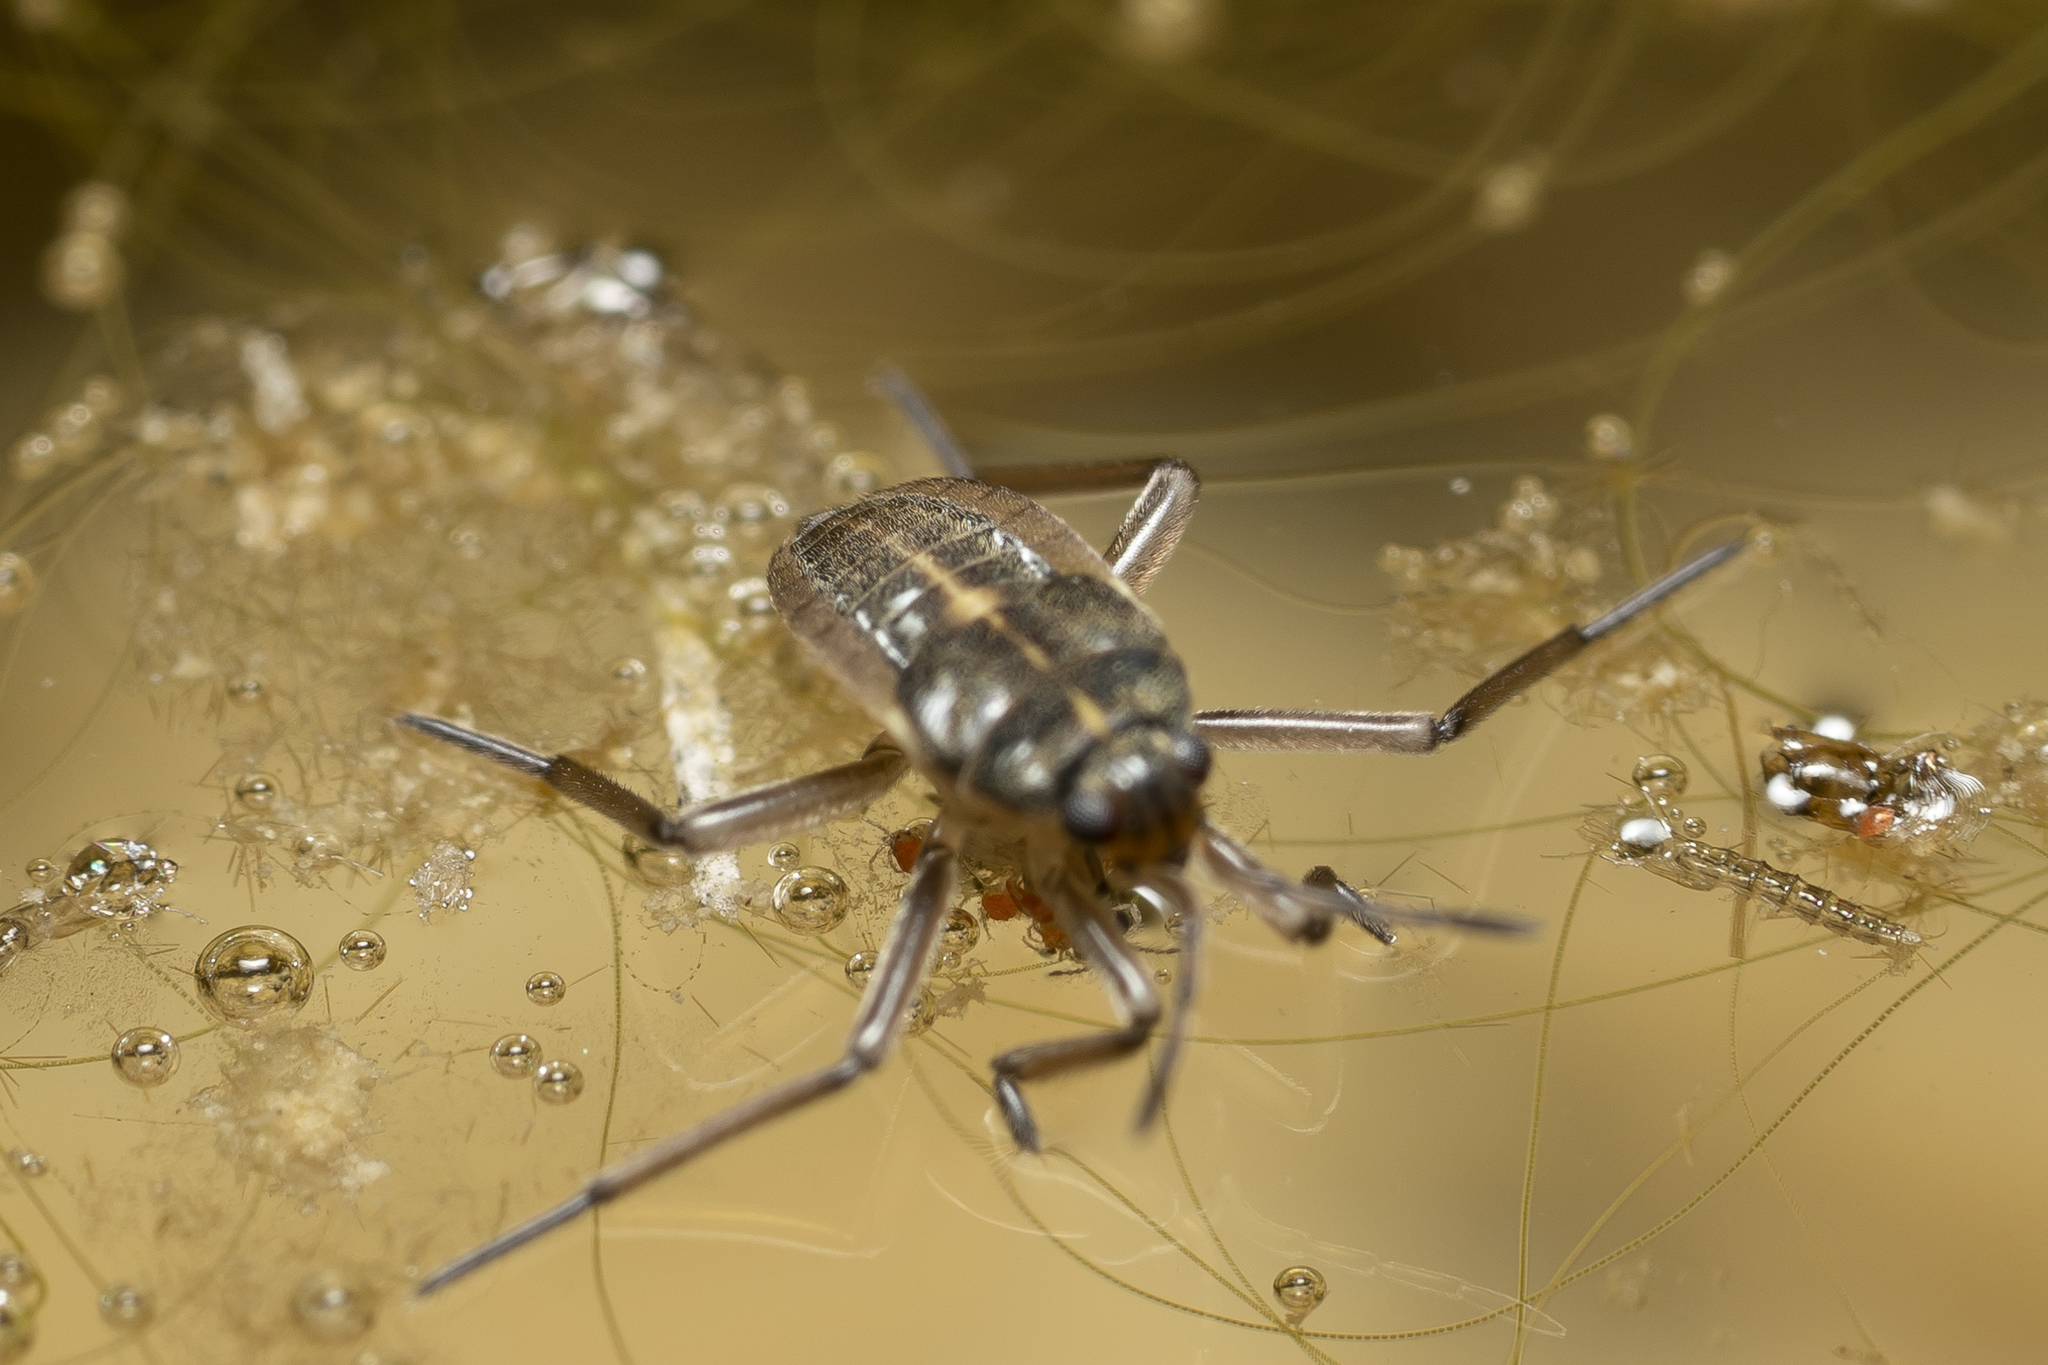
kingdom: Animalia
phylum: Arthropoda
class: Insecta
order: Hemiptera
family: Veliidae
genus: Velia
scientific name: Velia
